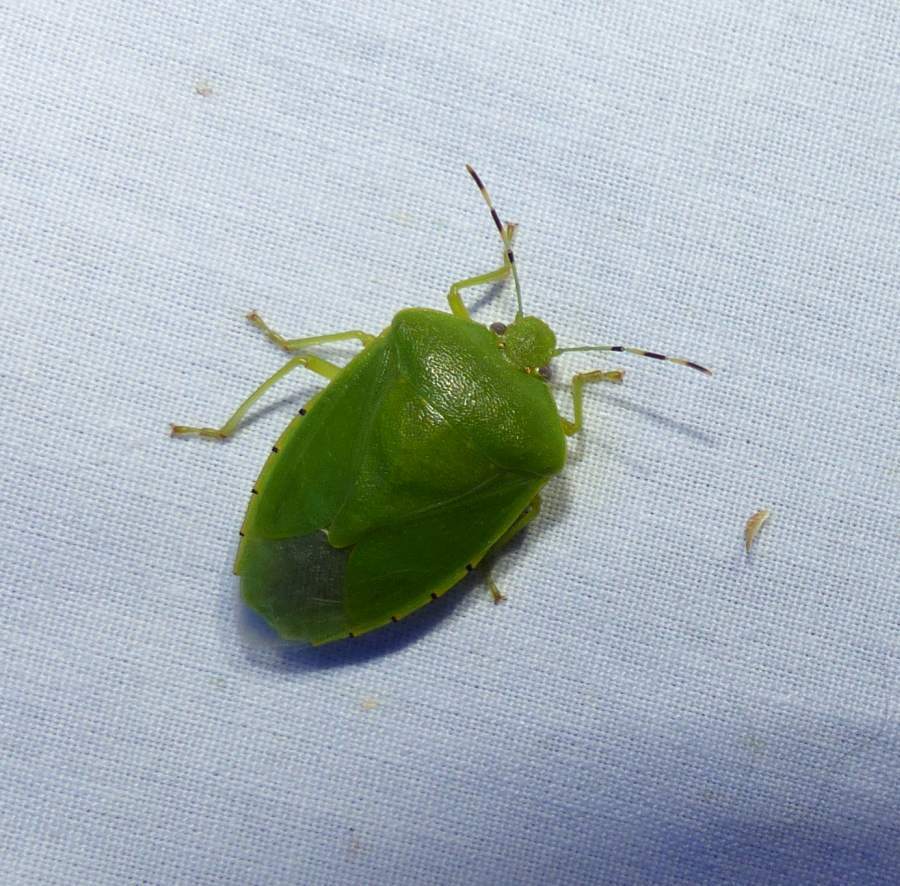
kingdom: Animalia
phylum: Arthropoda
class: Insecta
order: Hemiptera
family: Pentatomidae
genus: Chinavia
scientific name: Chinavia hilaris
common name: Green stink bug
